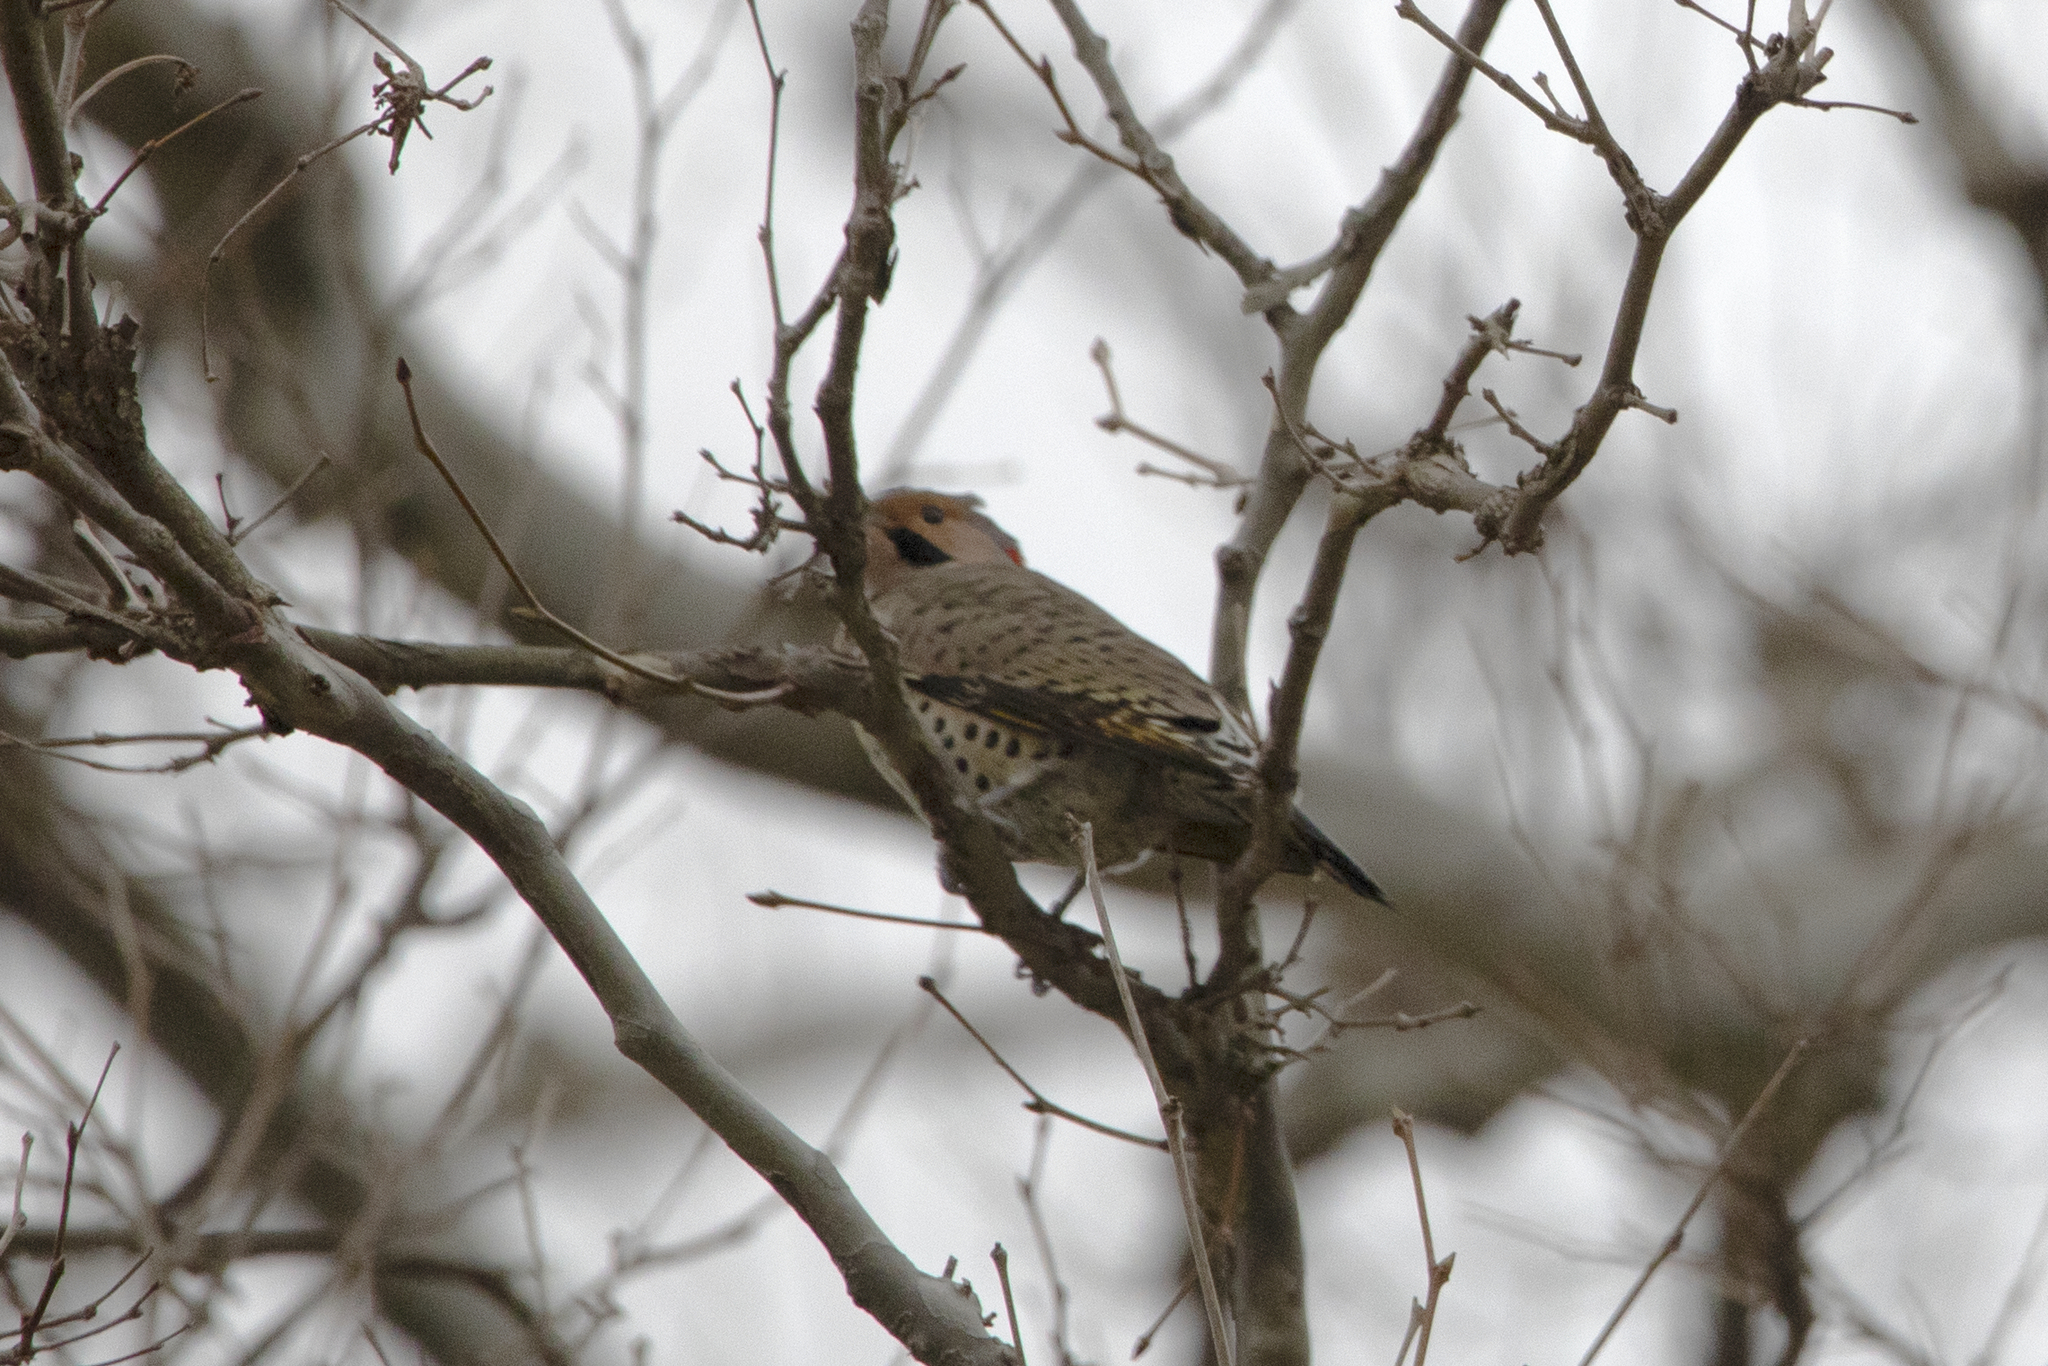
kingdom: Animalia
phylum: Chordata
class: Aves
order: Piciformes
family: Picidae
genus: Colaptes
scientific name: Colaptes auratus
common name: Northern flicker
